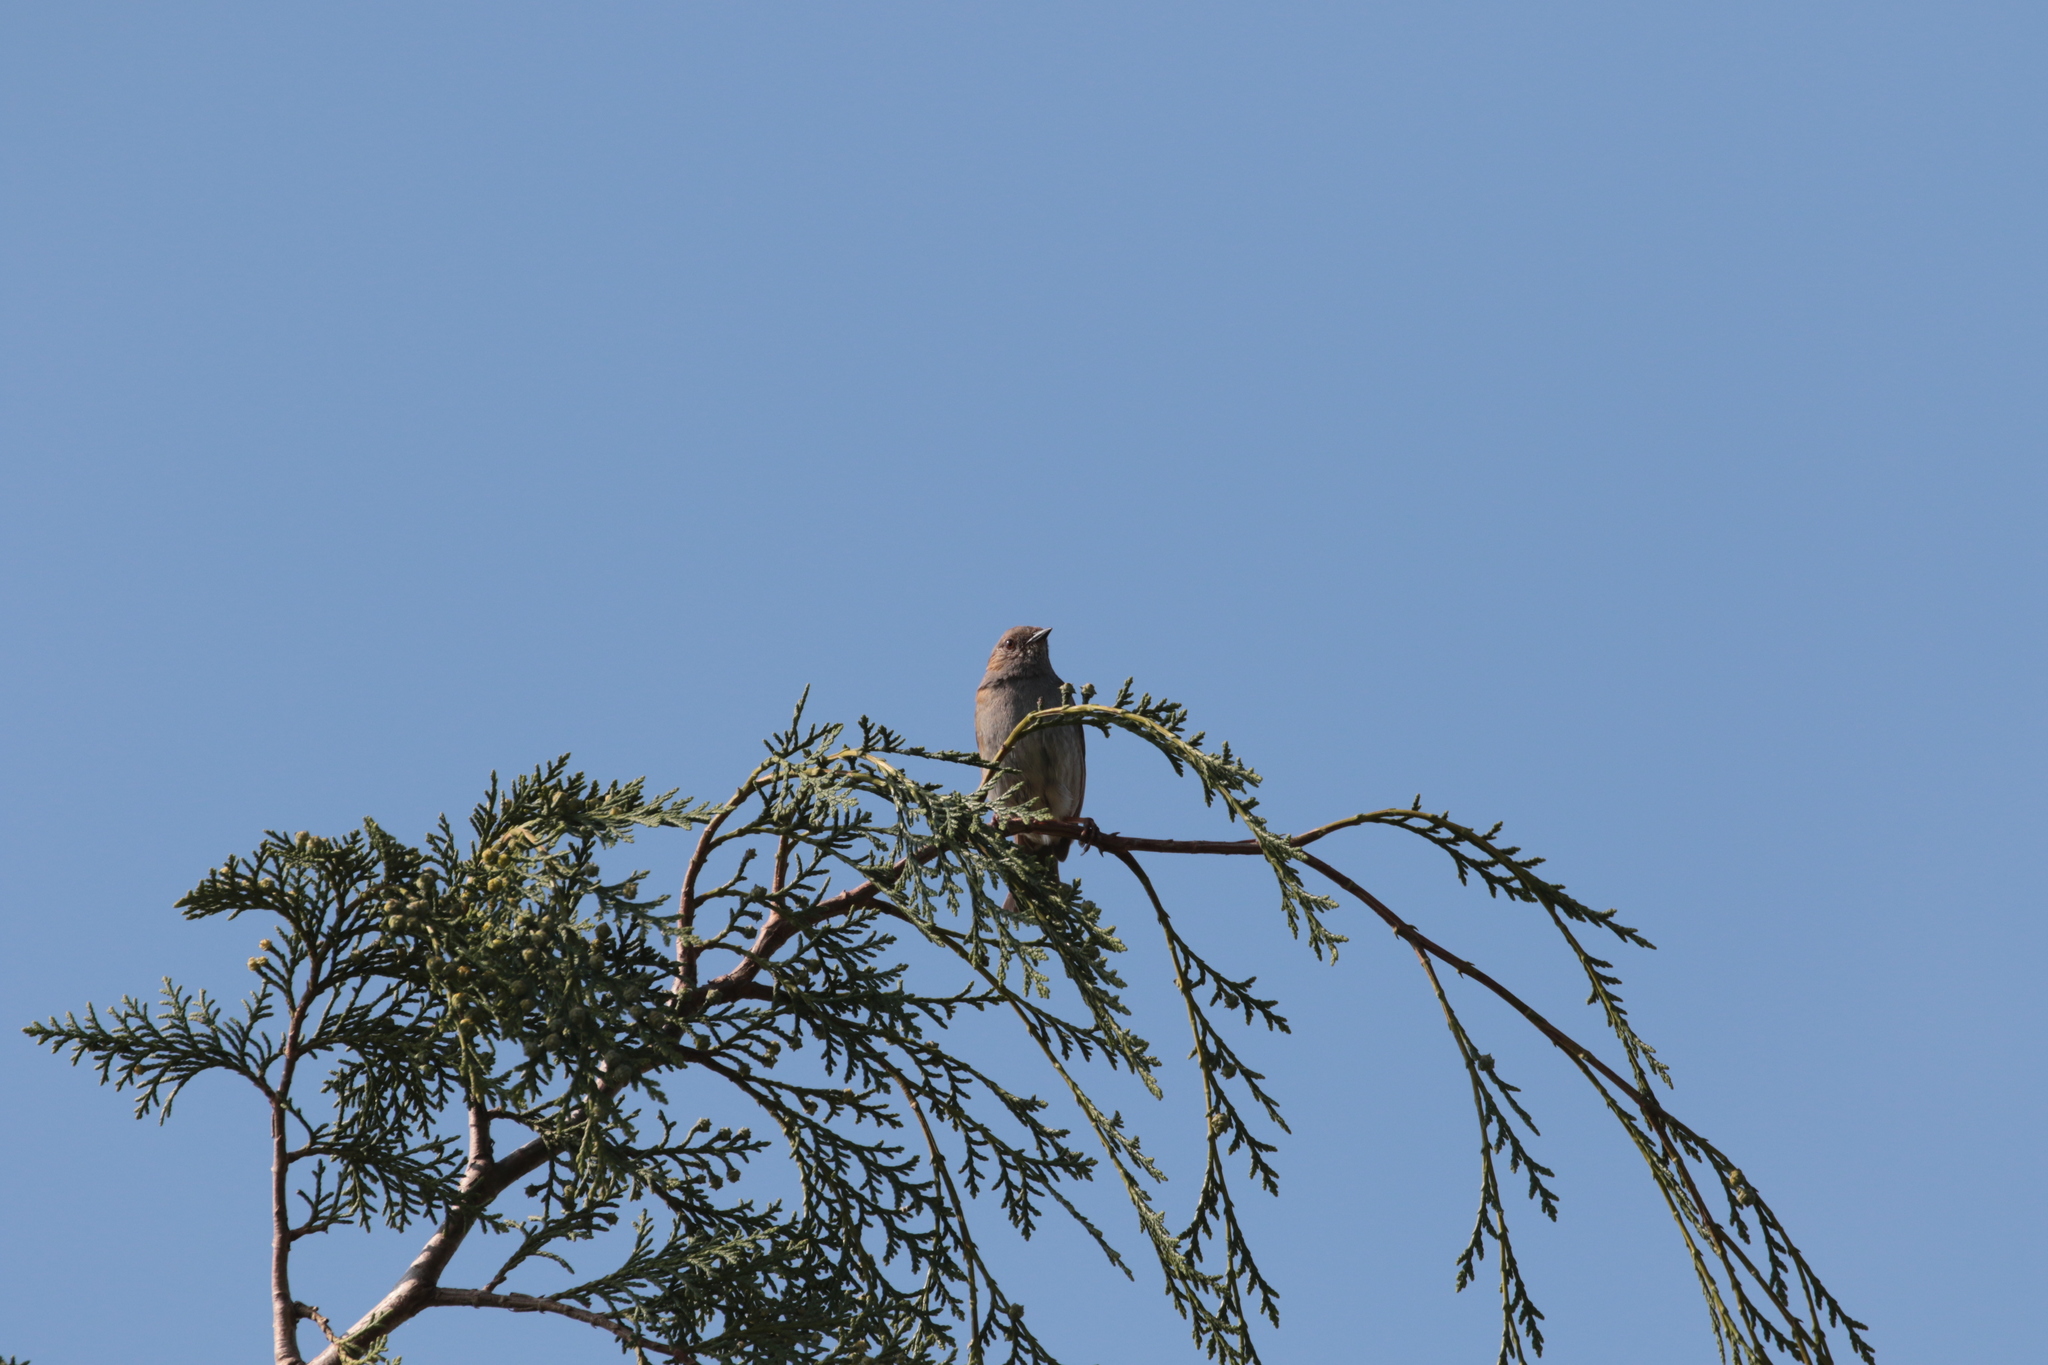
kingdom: Animalia
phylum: Chordata
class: Aves
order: Passeriformes
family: Prunellidae
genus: Prunella
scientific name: Prunella modularis
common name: Dunnock
